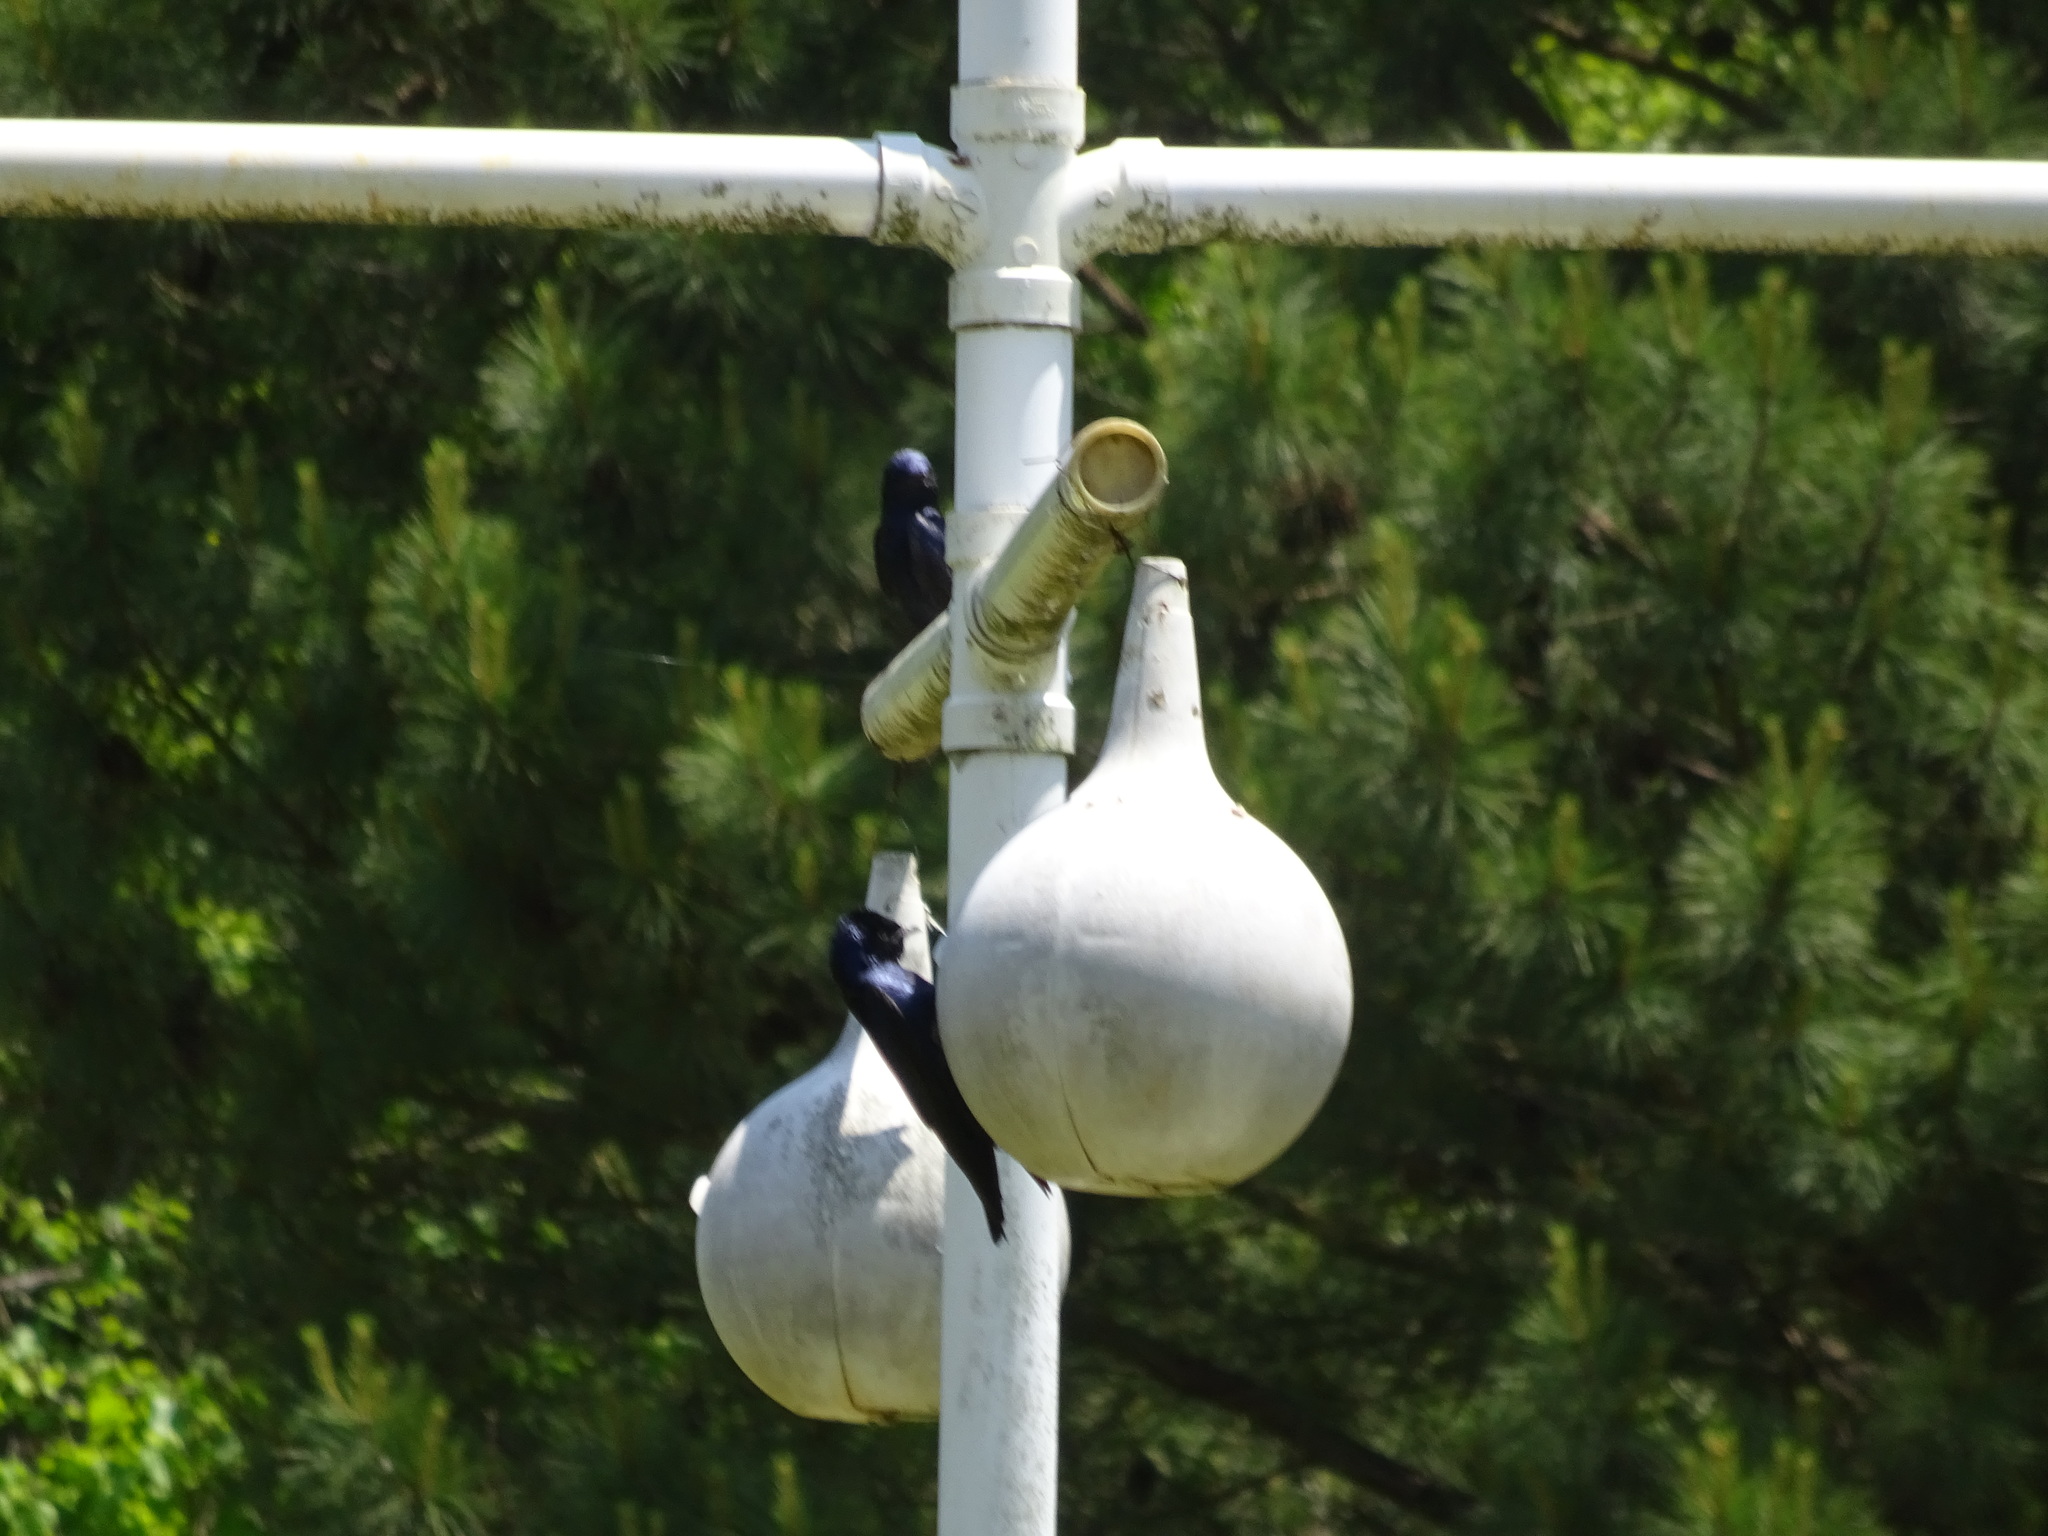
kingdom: Animalia
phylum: Chordata
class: Aves
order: Passeriformes
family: Hirundinidae
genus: Progne
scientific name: Progne subis
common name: Purple martin
